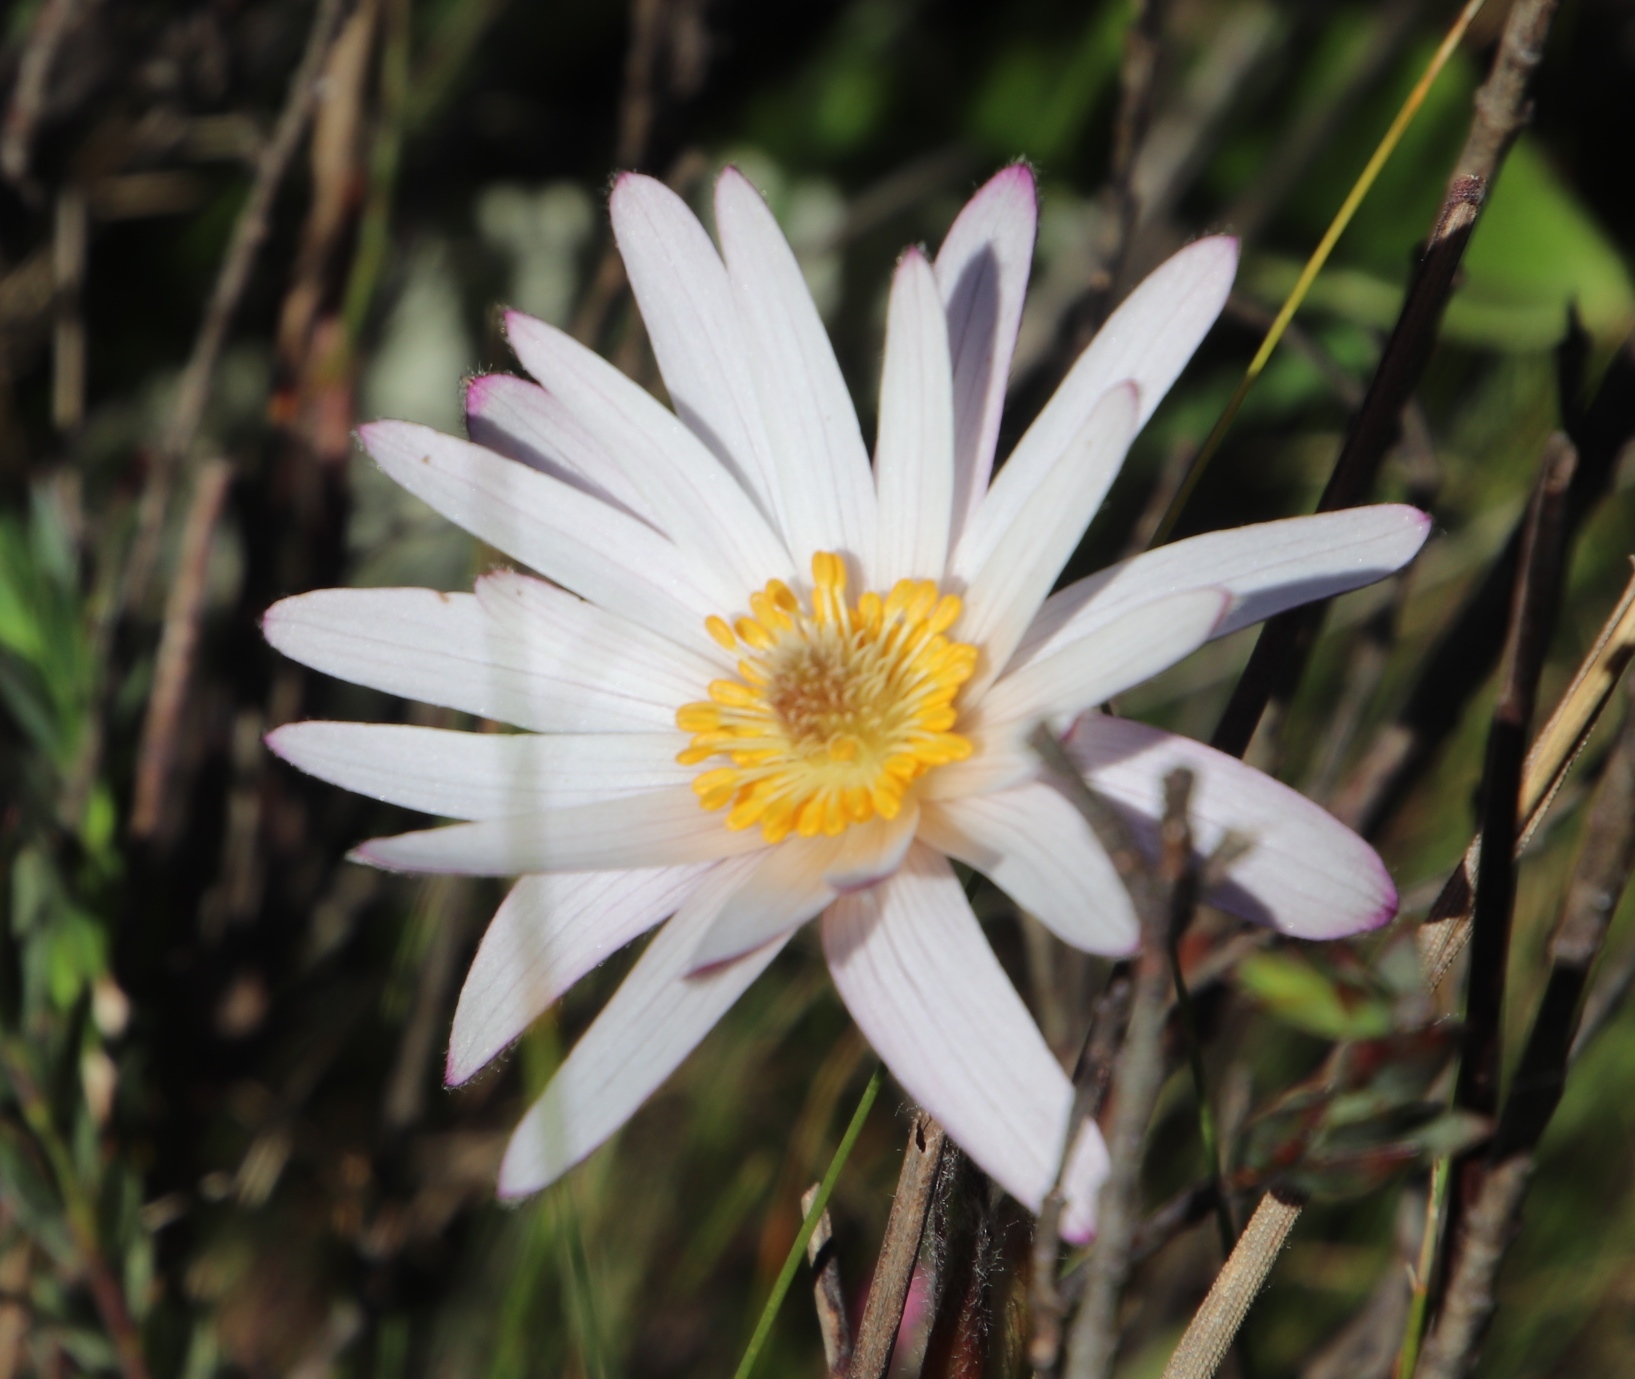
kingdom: Plantae
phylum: Tracheophyta
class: Magnoliopsida
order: Ranunculales
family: Ranunculaceae
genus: Knowltonia
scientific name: Knowltonia tenuifolia
